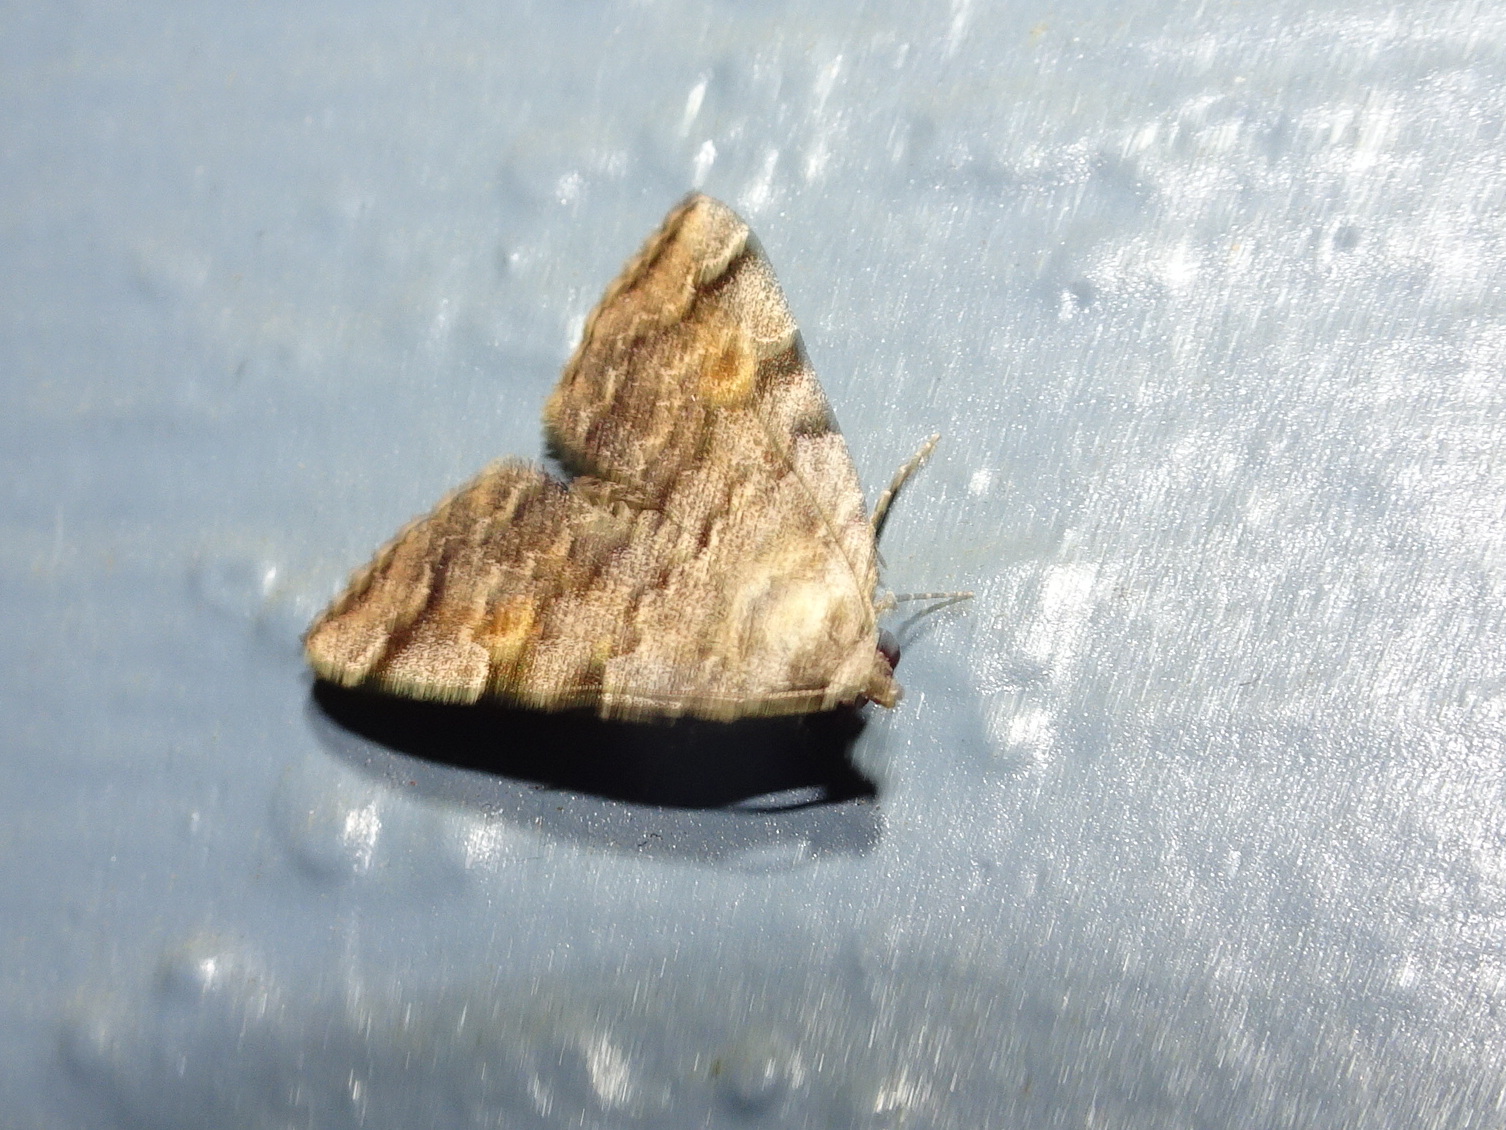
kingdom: Animalia
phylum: Arthropoda
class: Insecta
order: Lepidoptera
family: Erebidae
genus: Idia
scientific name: Idia americalis
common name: American idia moth
